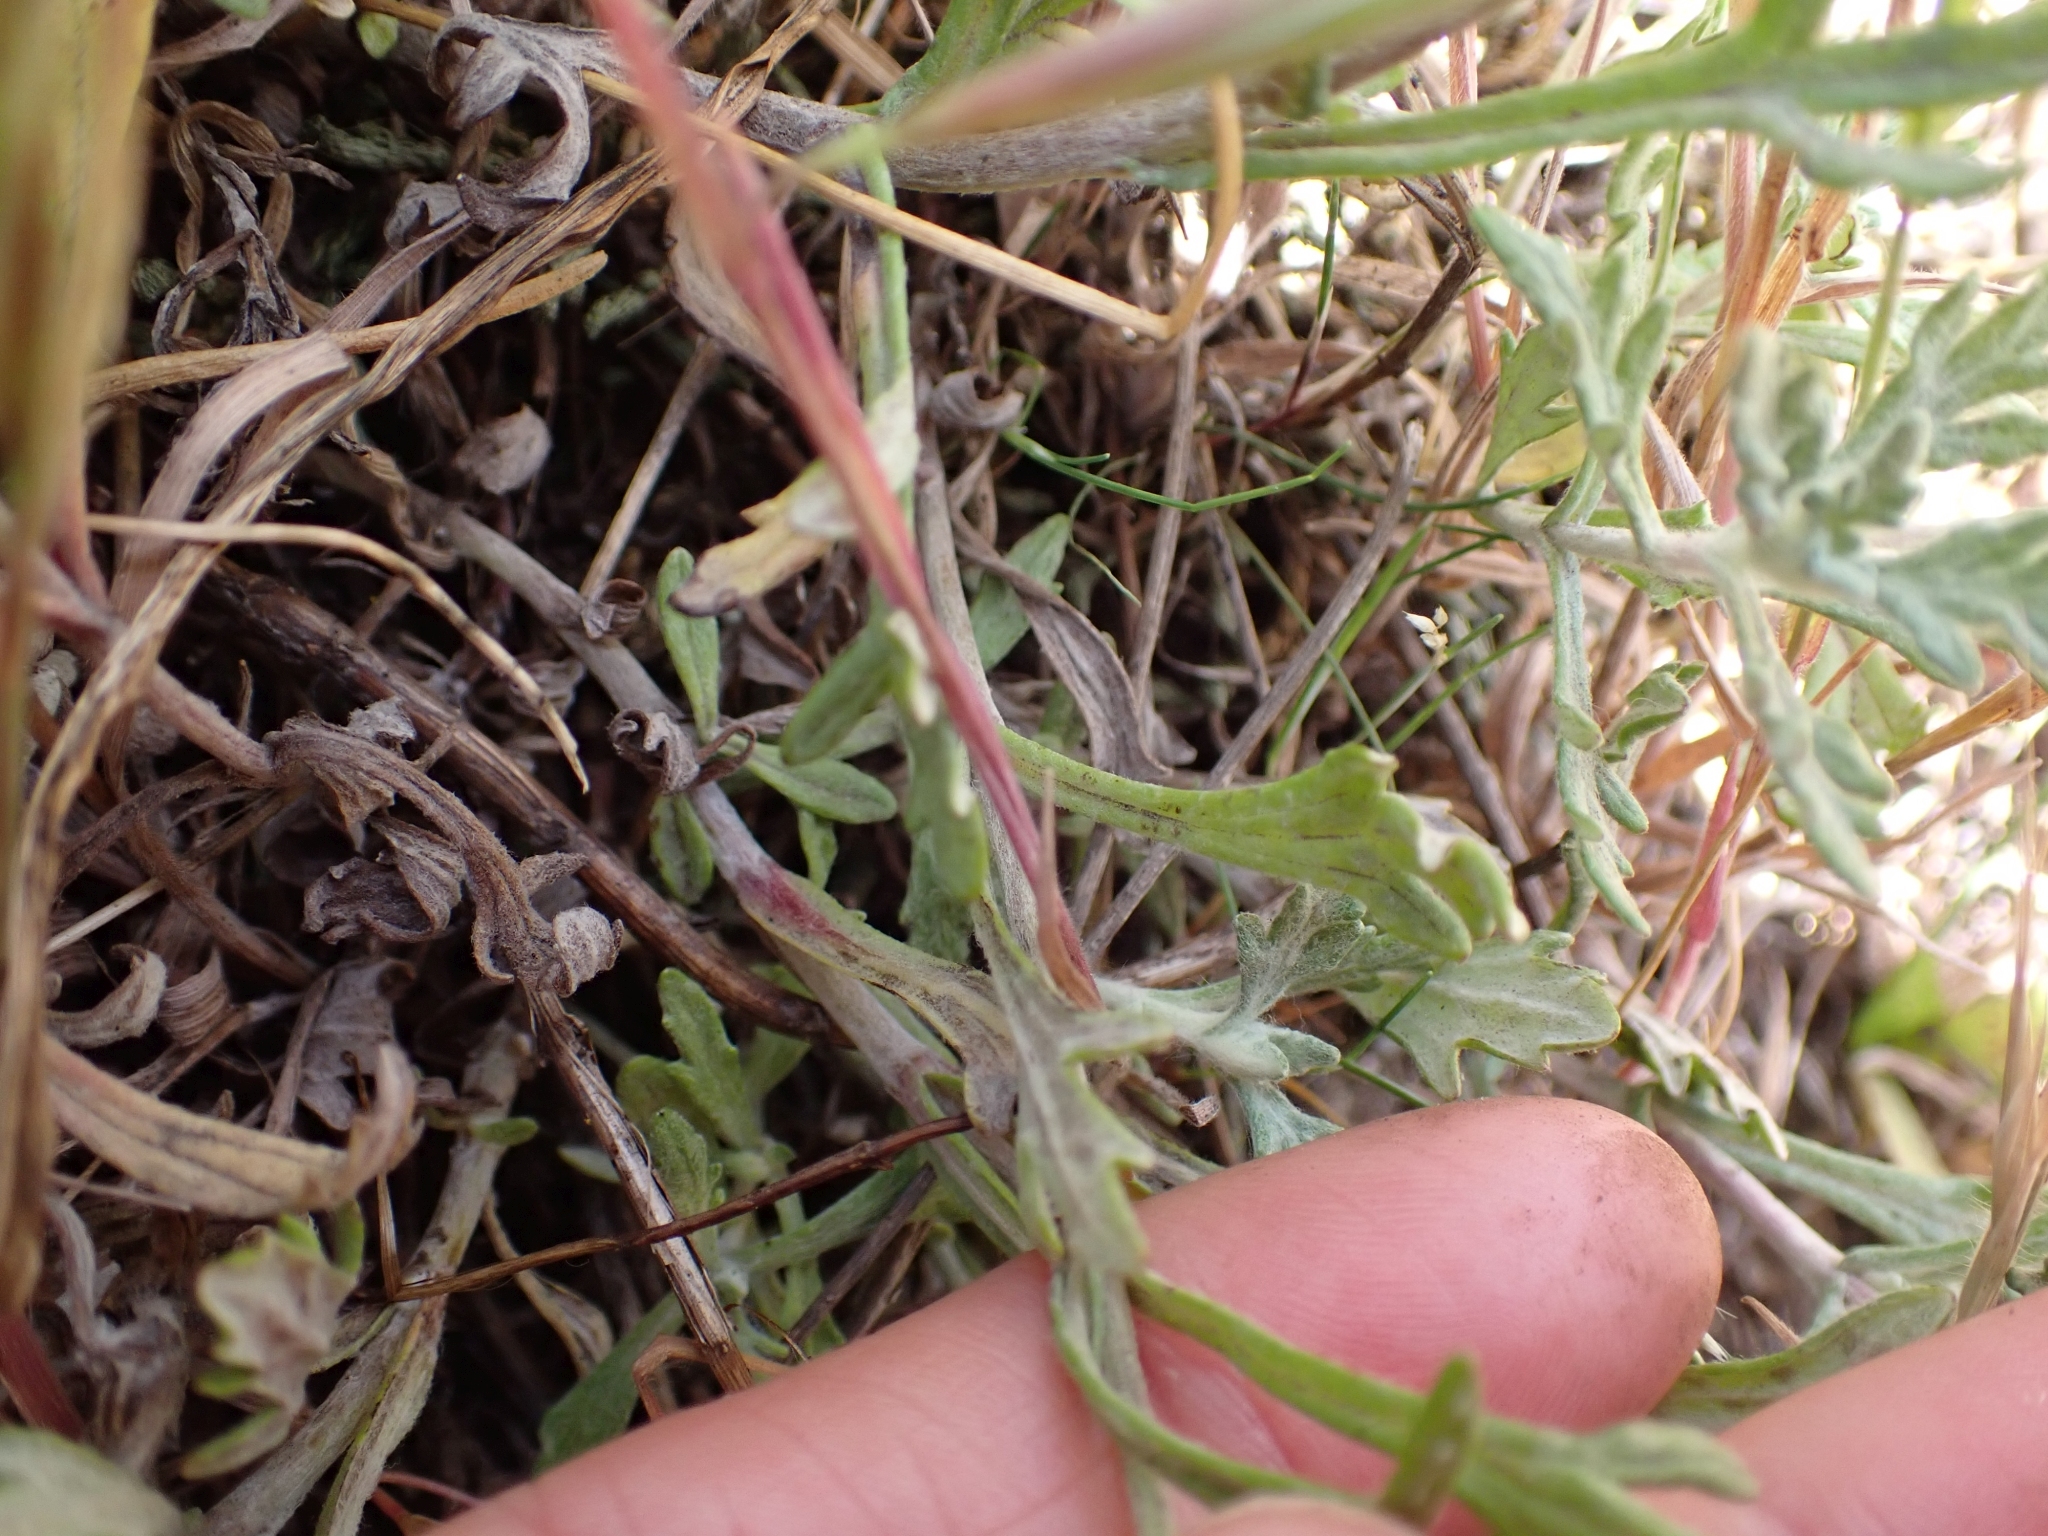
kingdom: Plantae
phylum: Tracheophyta
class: Magnoliopsida
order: Asterales
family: Asteraceae
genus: Eriophyllum
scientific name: Eriophyllum lanatum
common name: Common woolly-sunflower
